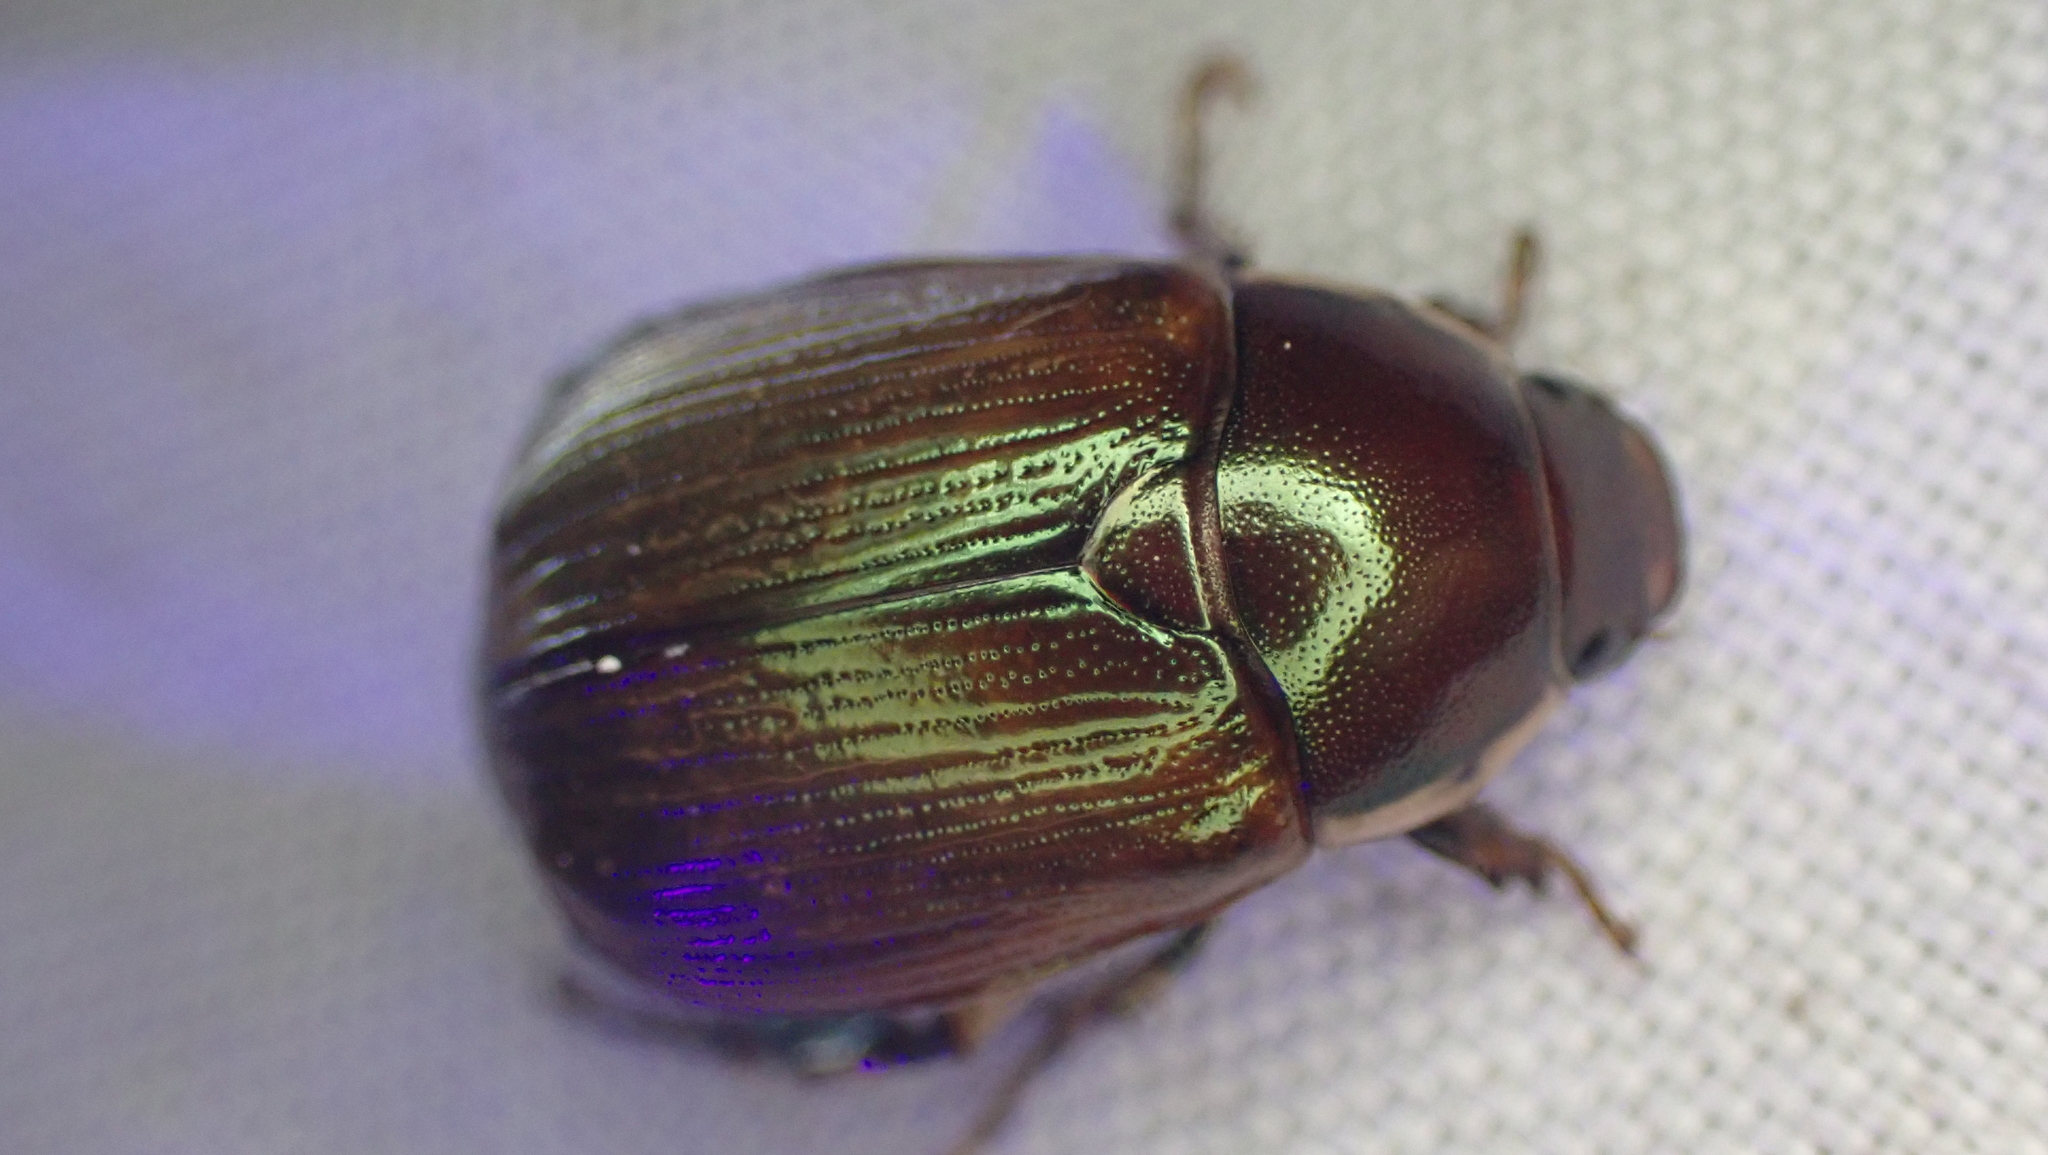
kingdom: Animalia
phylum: Arthropoda
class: Insecta
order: Coleoptera
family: Scarabaeidae
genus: Callistethus
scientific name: Callistethus marginatus
